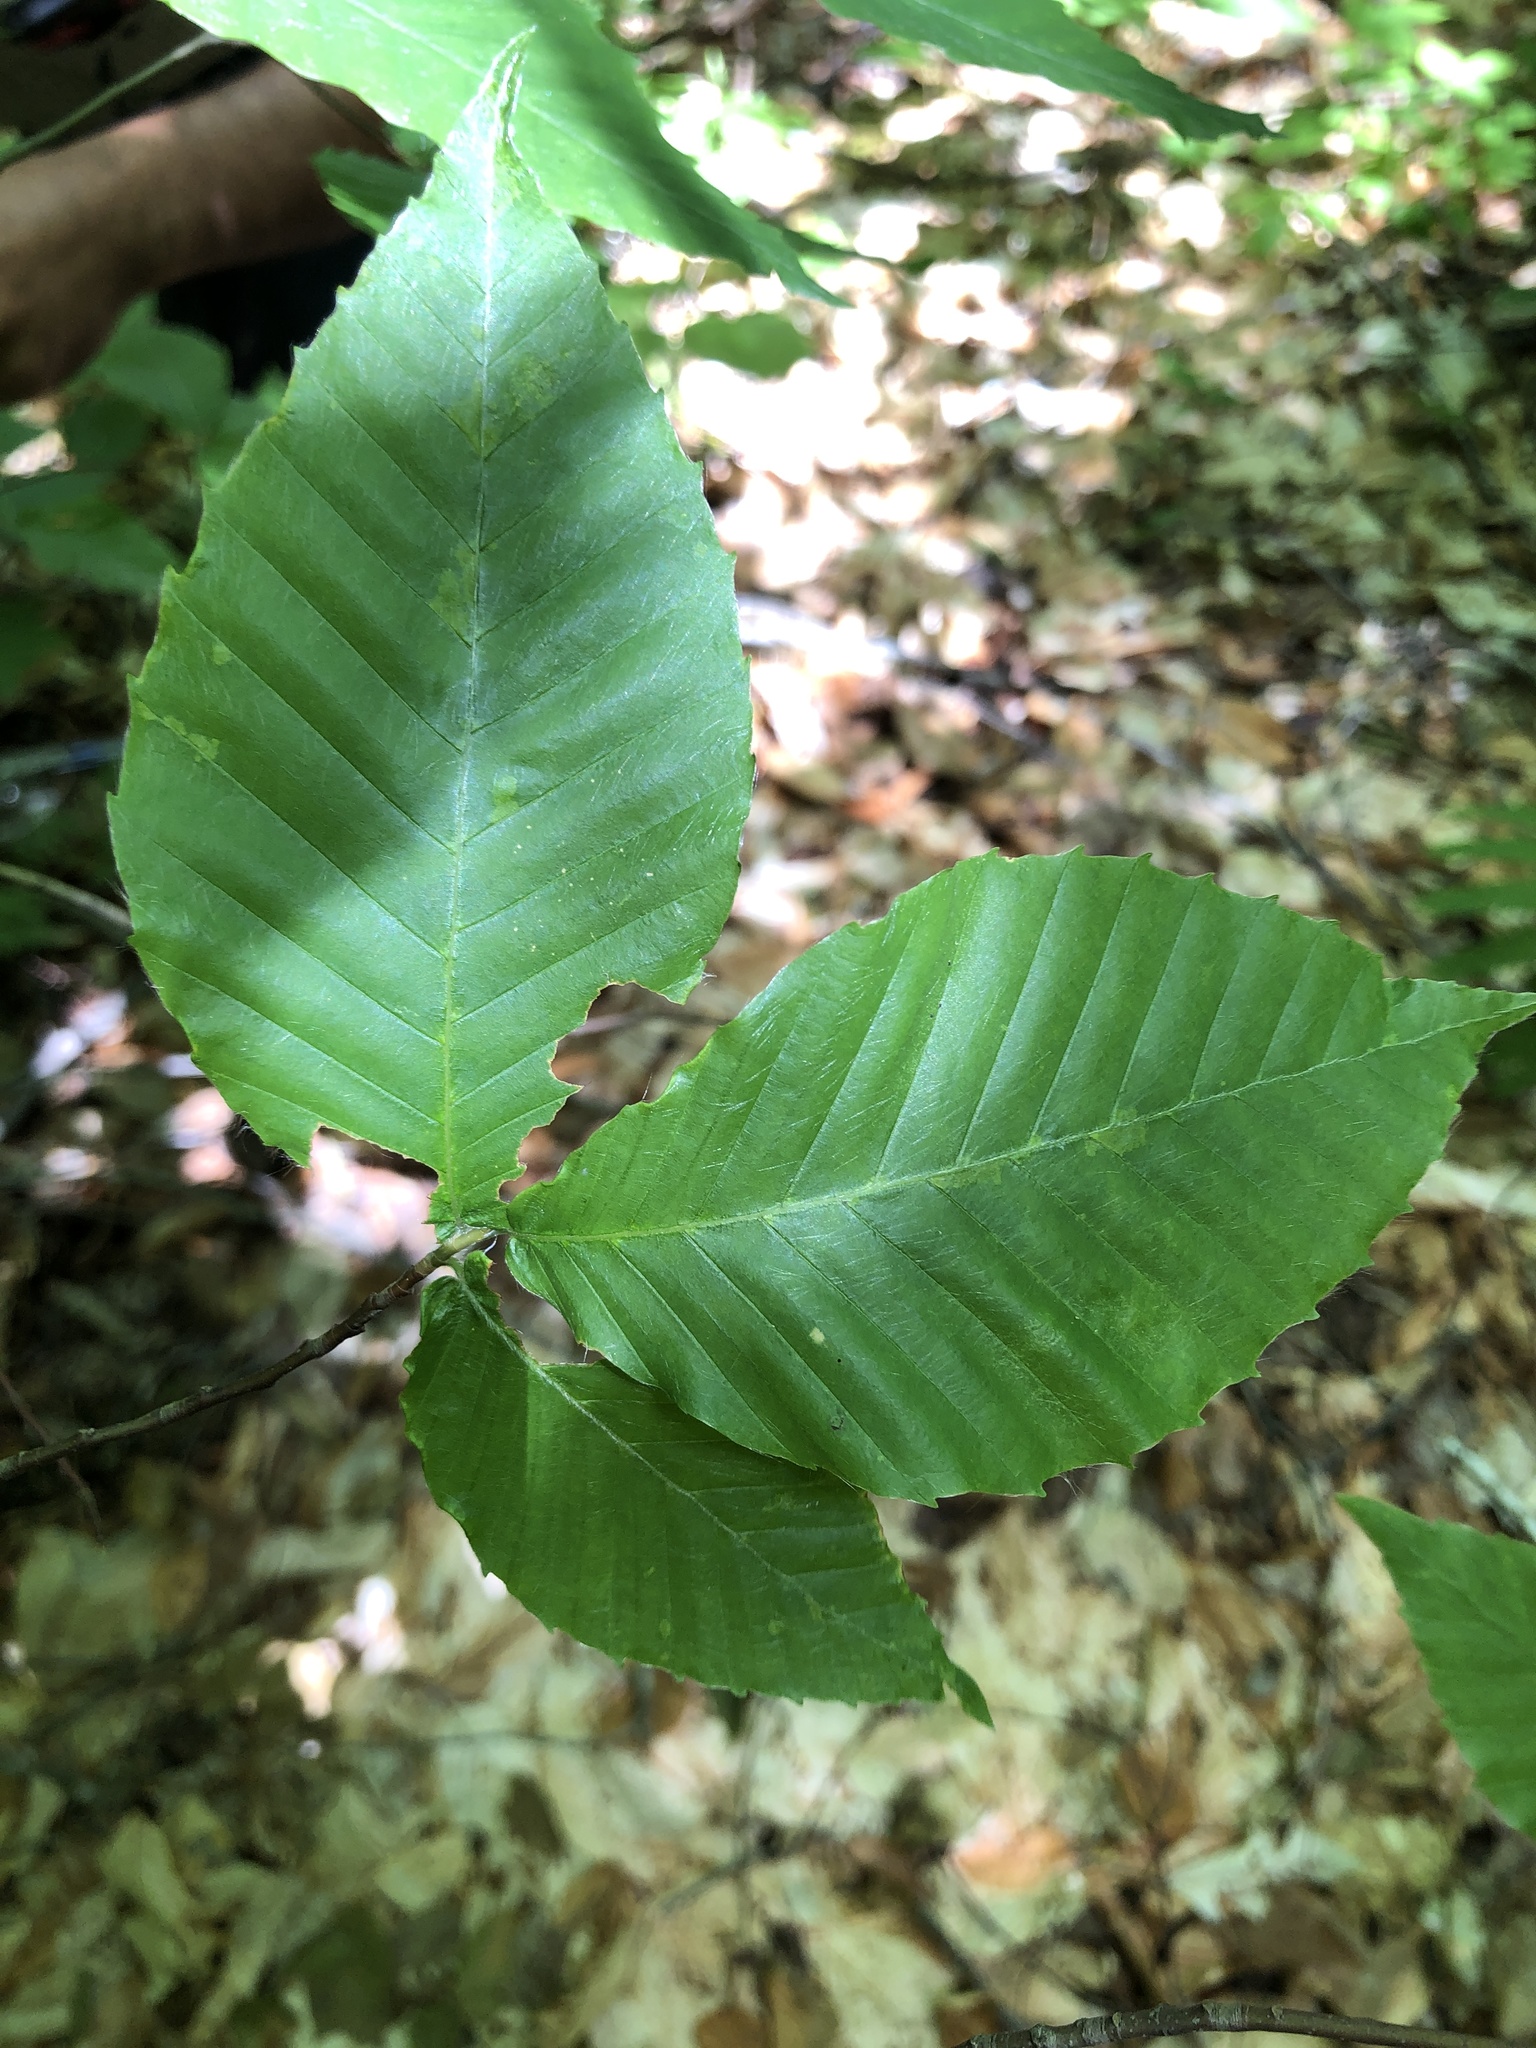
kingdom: Plantae
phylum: Tracheophyta
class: Magnoliopsida
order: Fagales
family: Fagaceae
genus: Fagus
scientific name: Fagus grandifolia
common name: American beech
